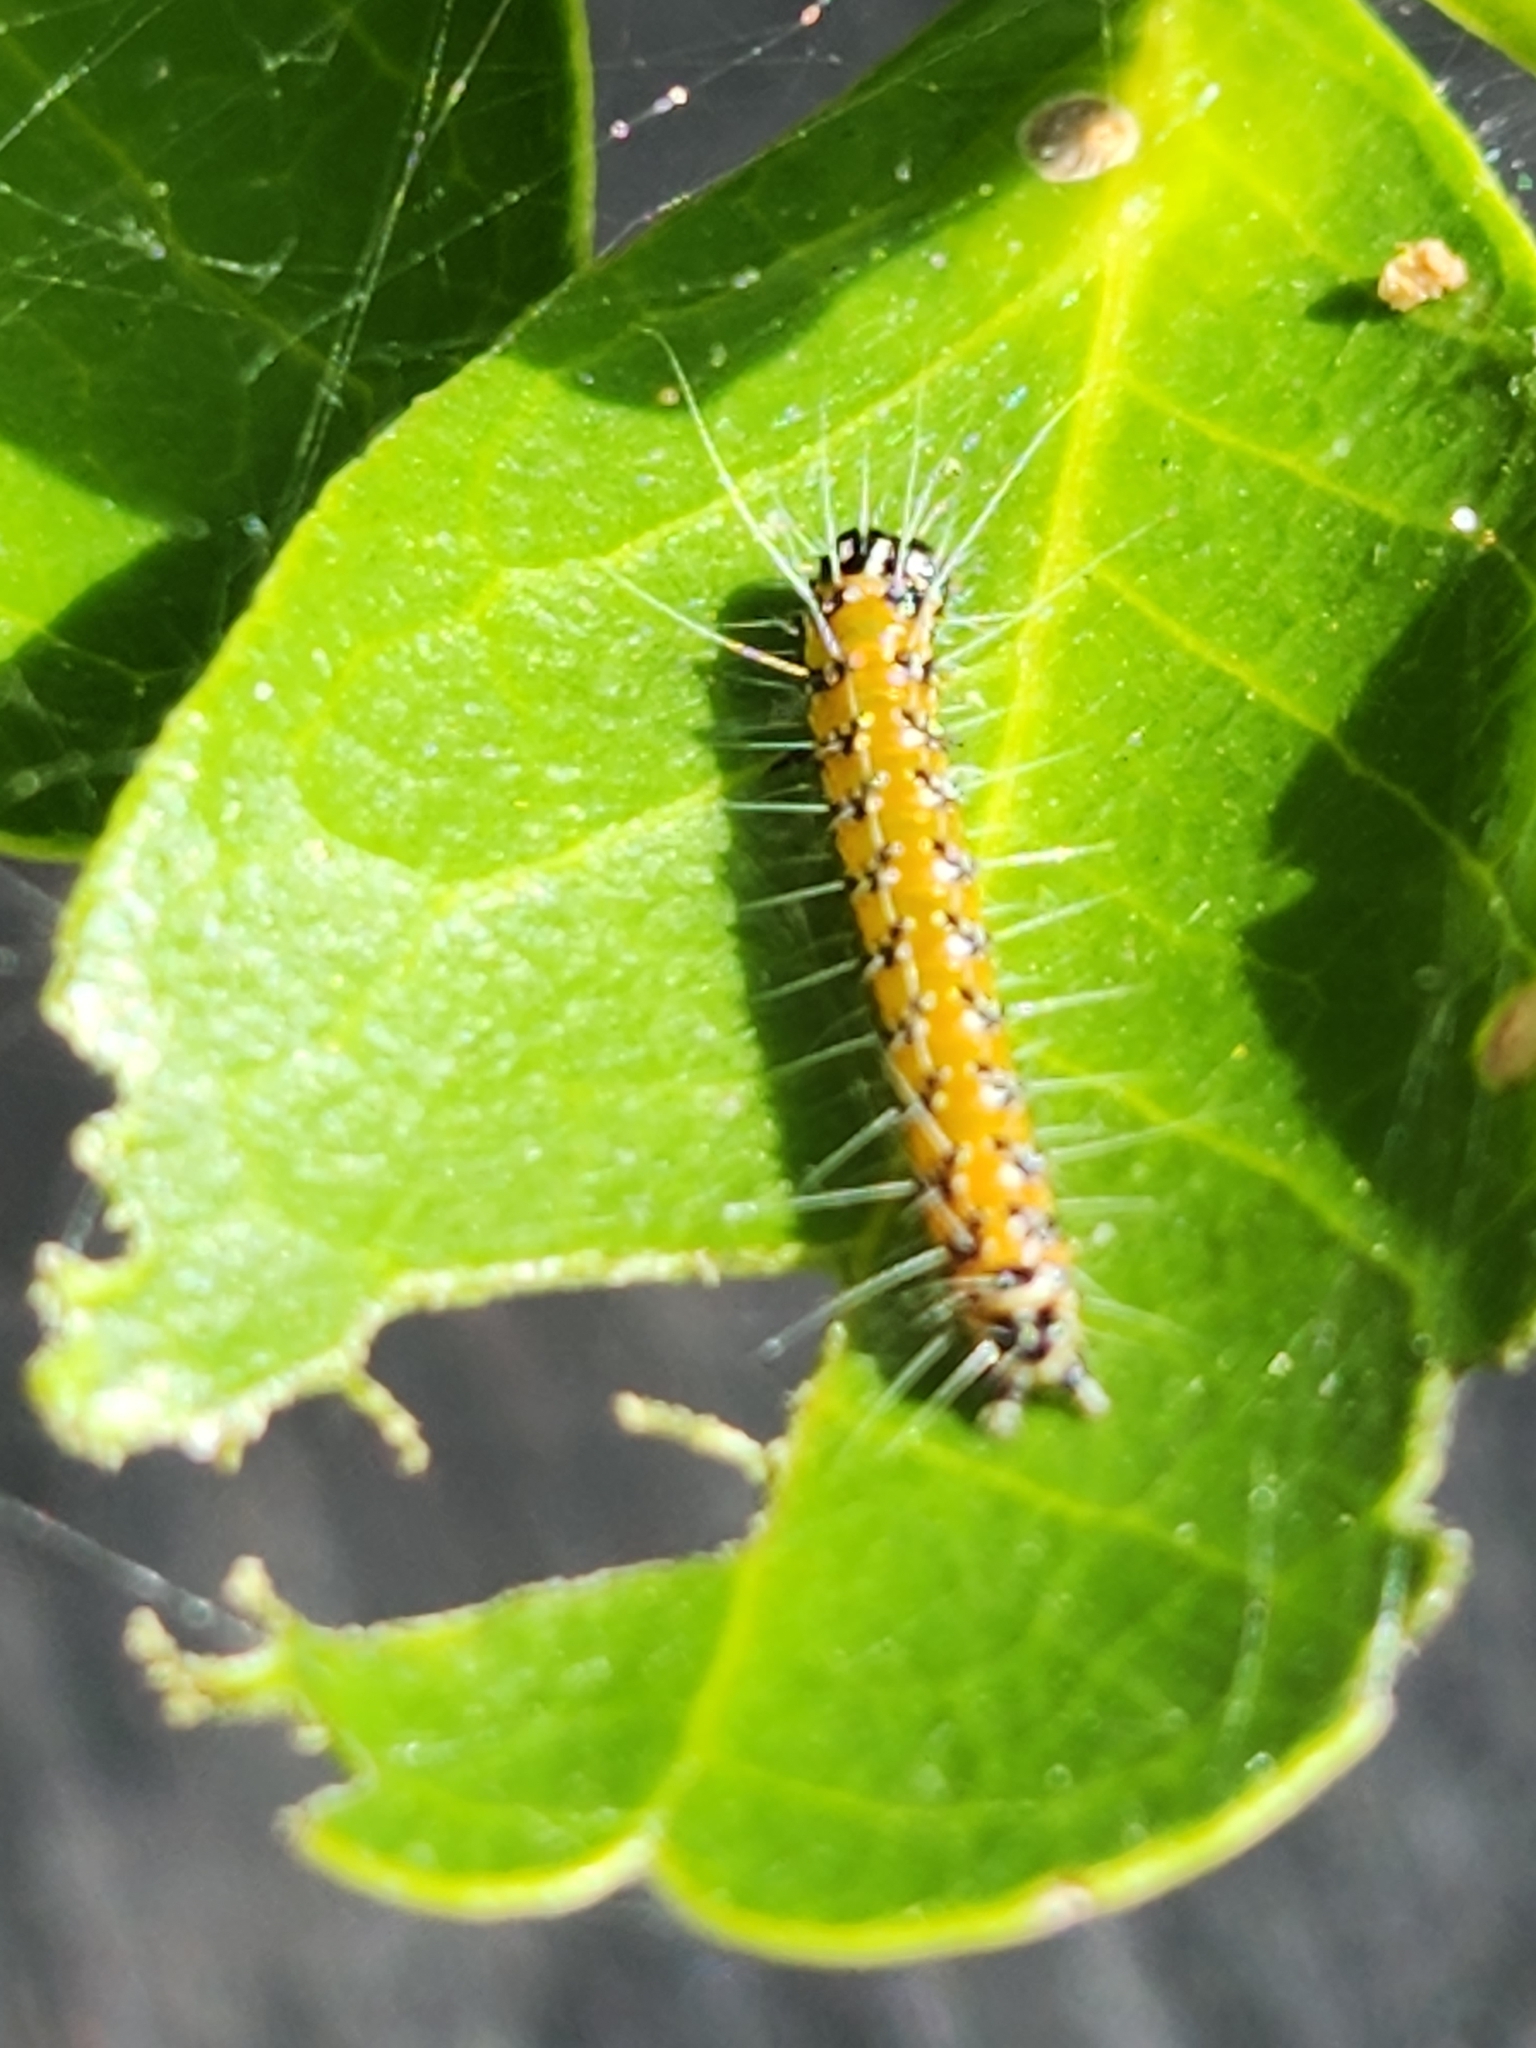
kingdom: Animalia
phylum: Arthropoda
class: Insecta
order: Lepidoptera
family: Crambidae
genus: Uresiphita
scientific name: Uresiphita reversalis
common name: Genista broom moth
